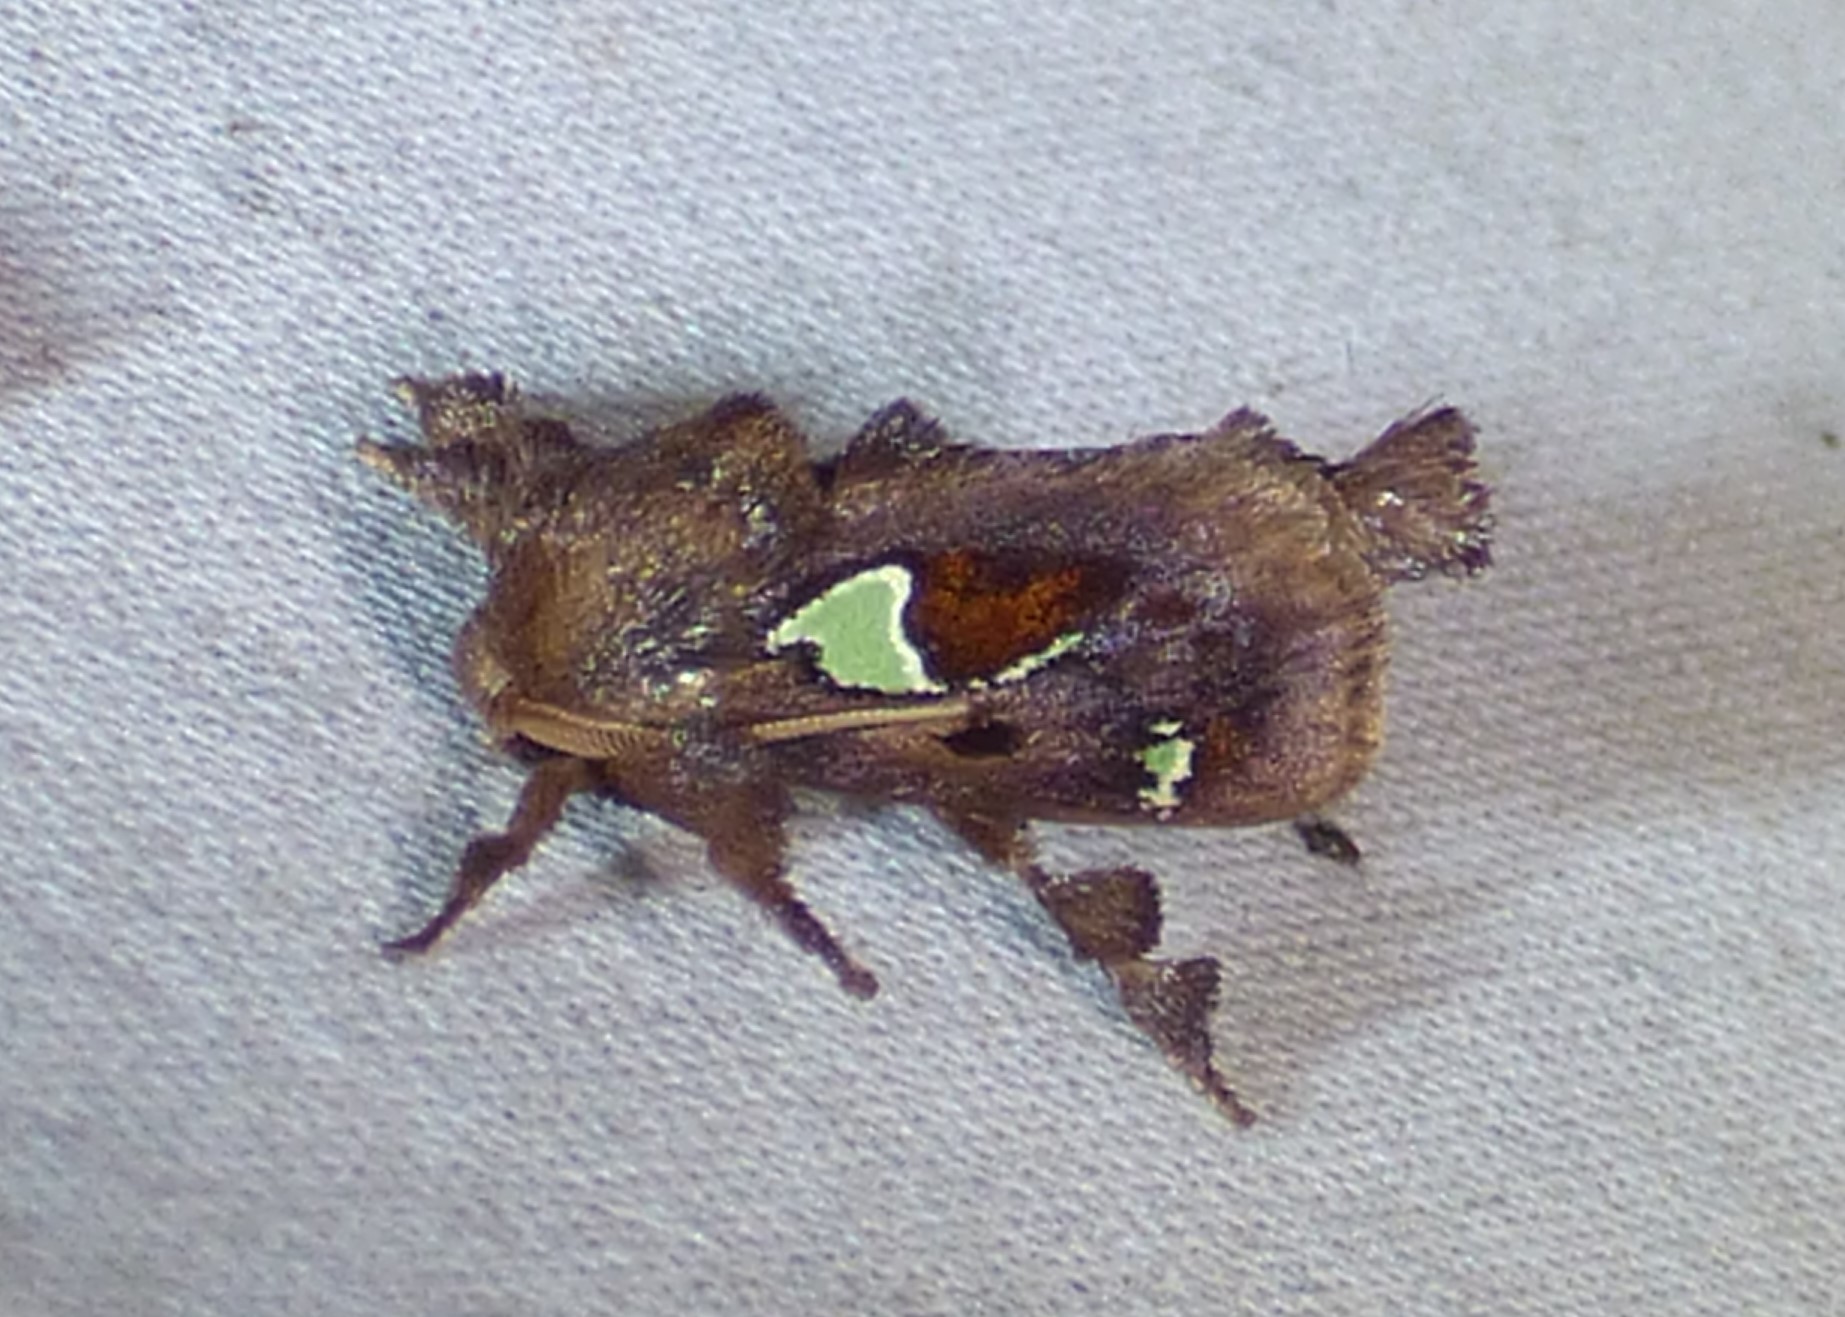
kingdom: Animalia
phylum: Arthropoda
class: Insecta
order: Lepidoptera
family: Limacodidae
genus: Euclea
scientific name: Euclea delphinii
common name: Spiny oak-slug moth
